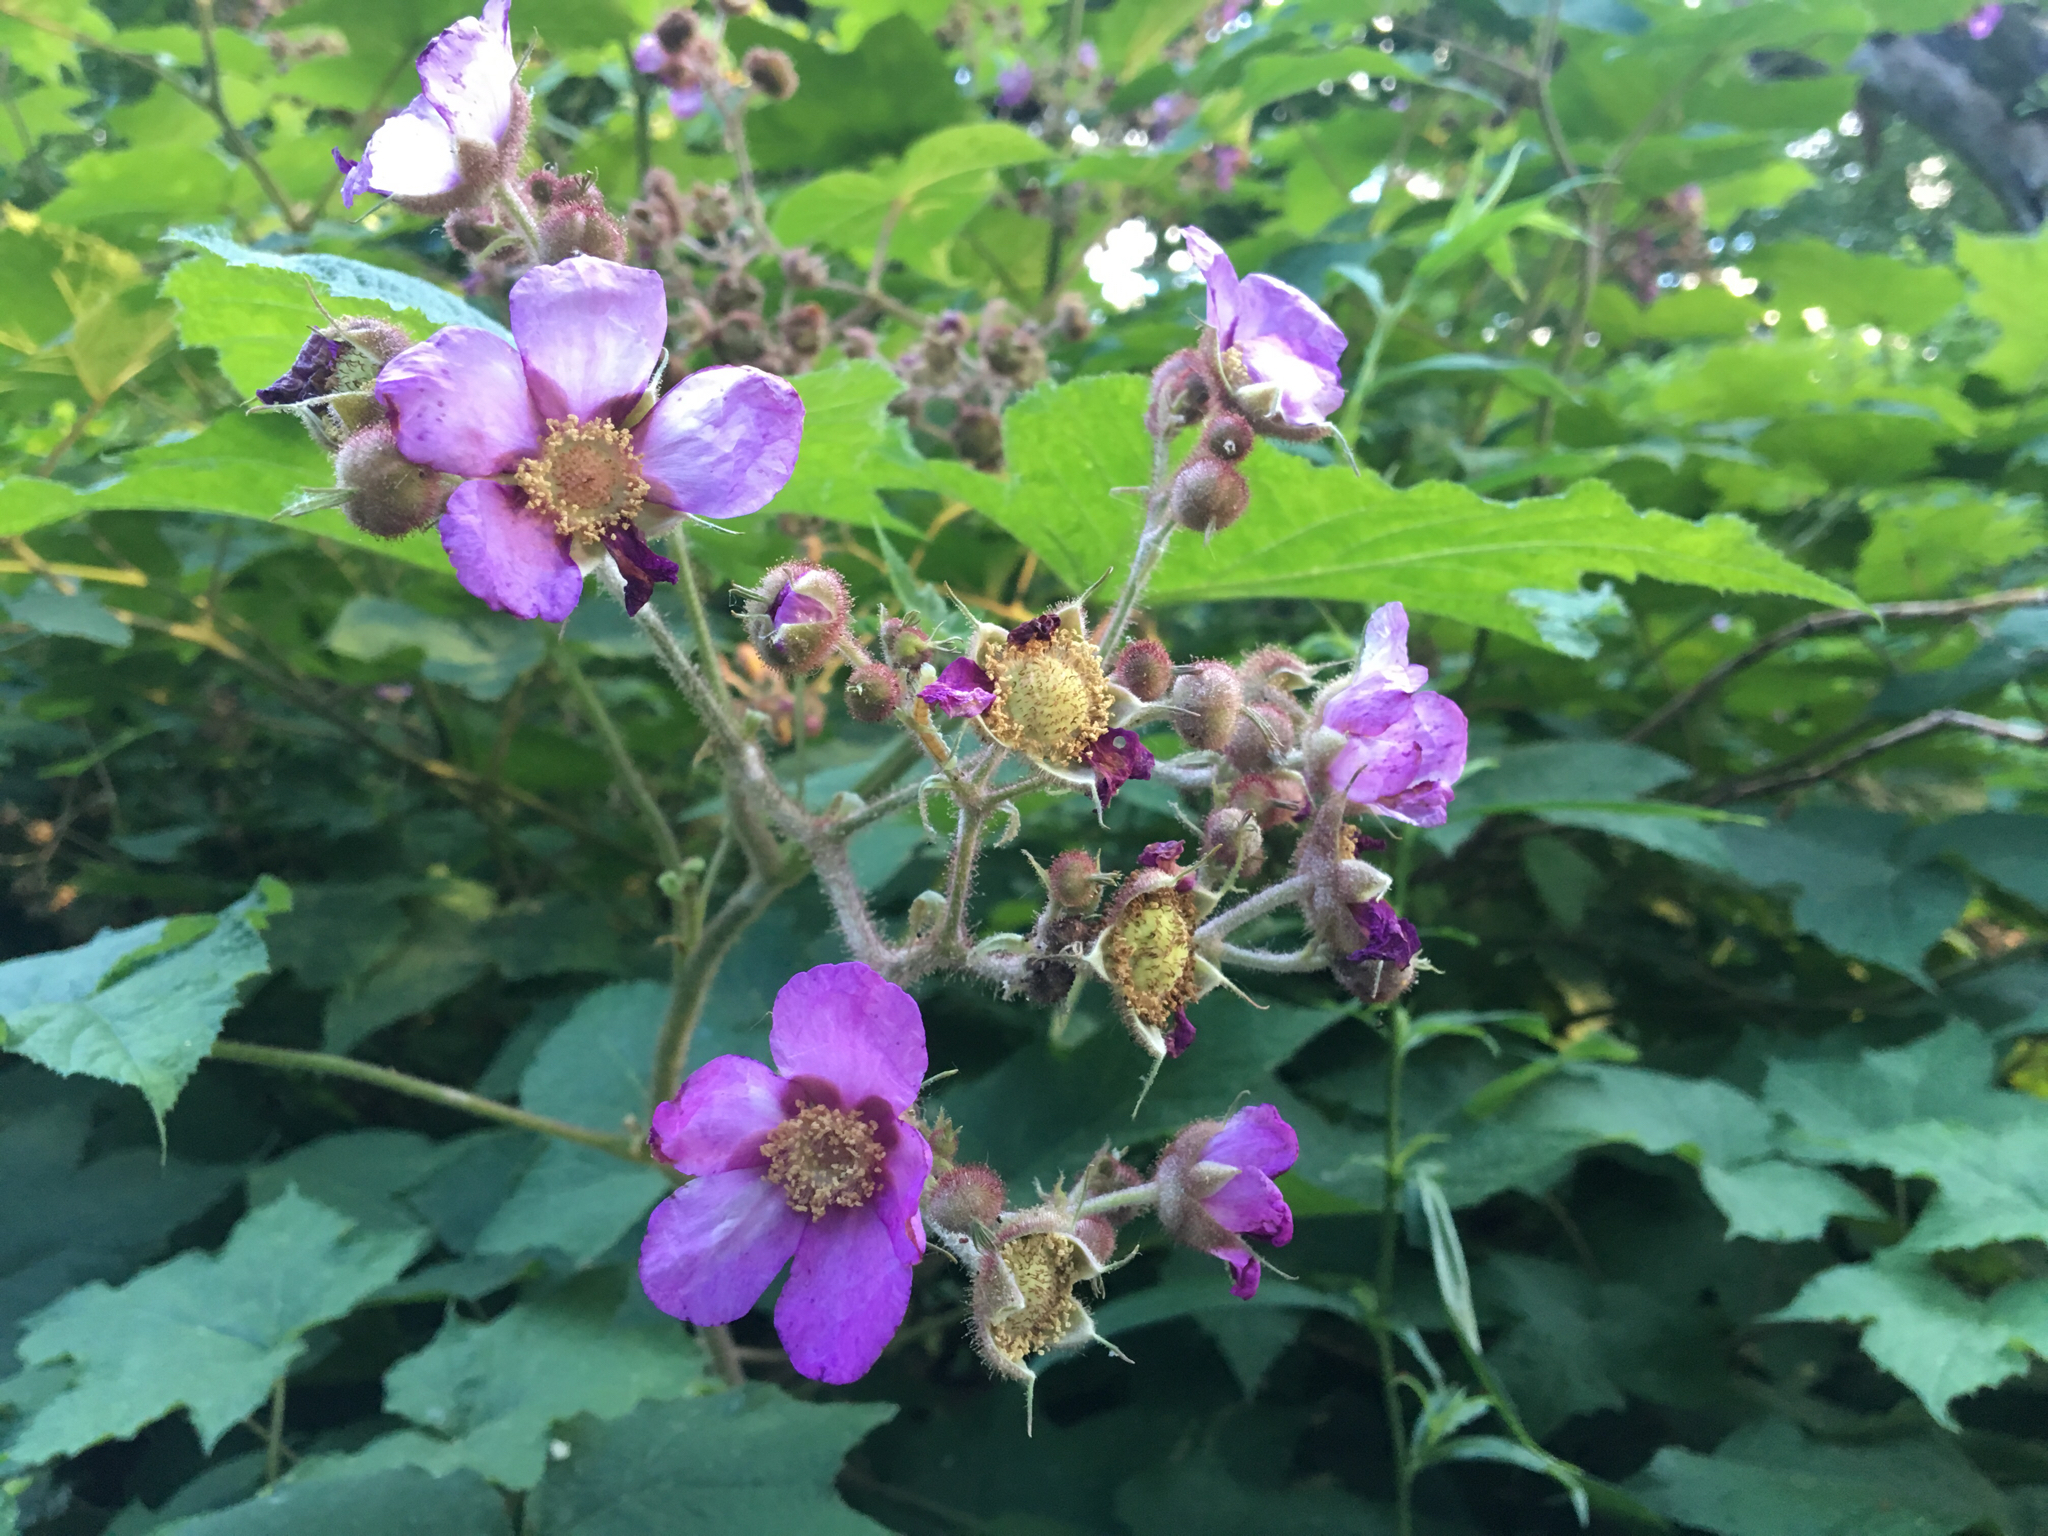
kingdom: Plantae
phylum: Tracheophyta
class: Magnoliopsida
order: Rosales
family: Rosaceae
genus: Rubus
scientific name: Rubus odoratus
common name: Purple-flowered raspberry
